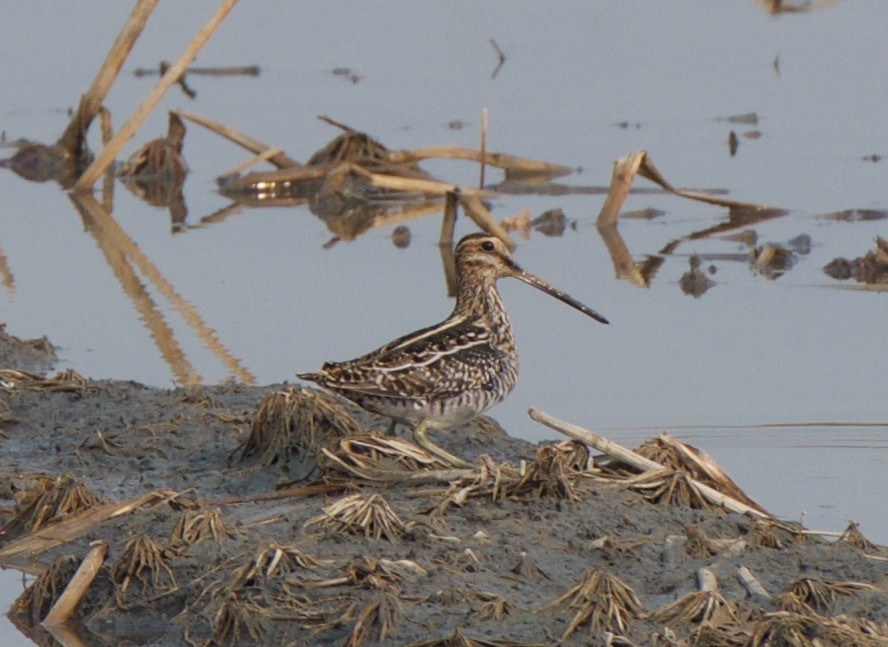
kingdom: Animalia
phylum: Chordata
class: Aves
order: Charadriiformes
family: Scolopacidae
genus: Gallinago
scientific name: Gallinago delicata
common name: Wilson's snipe
